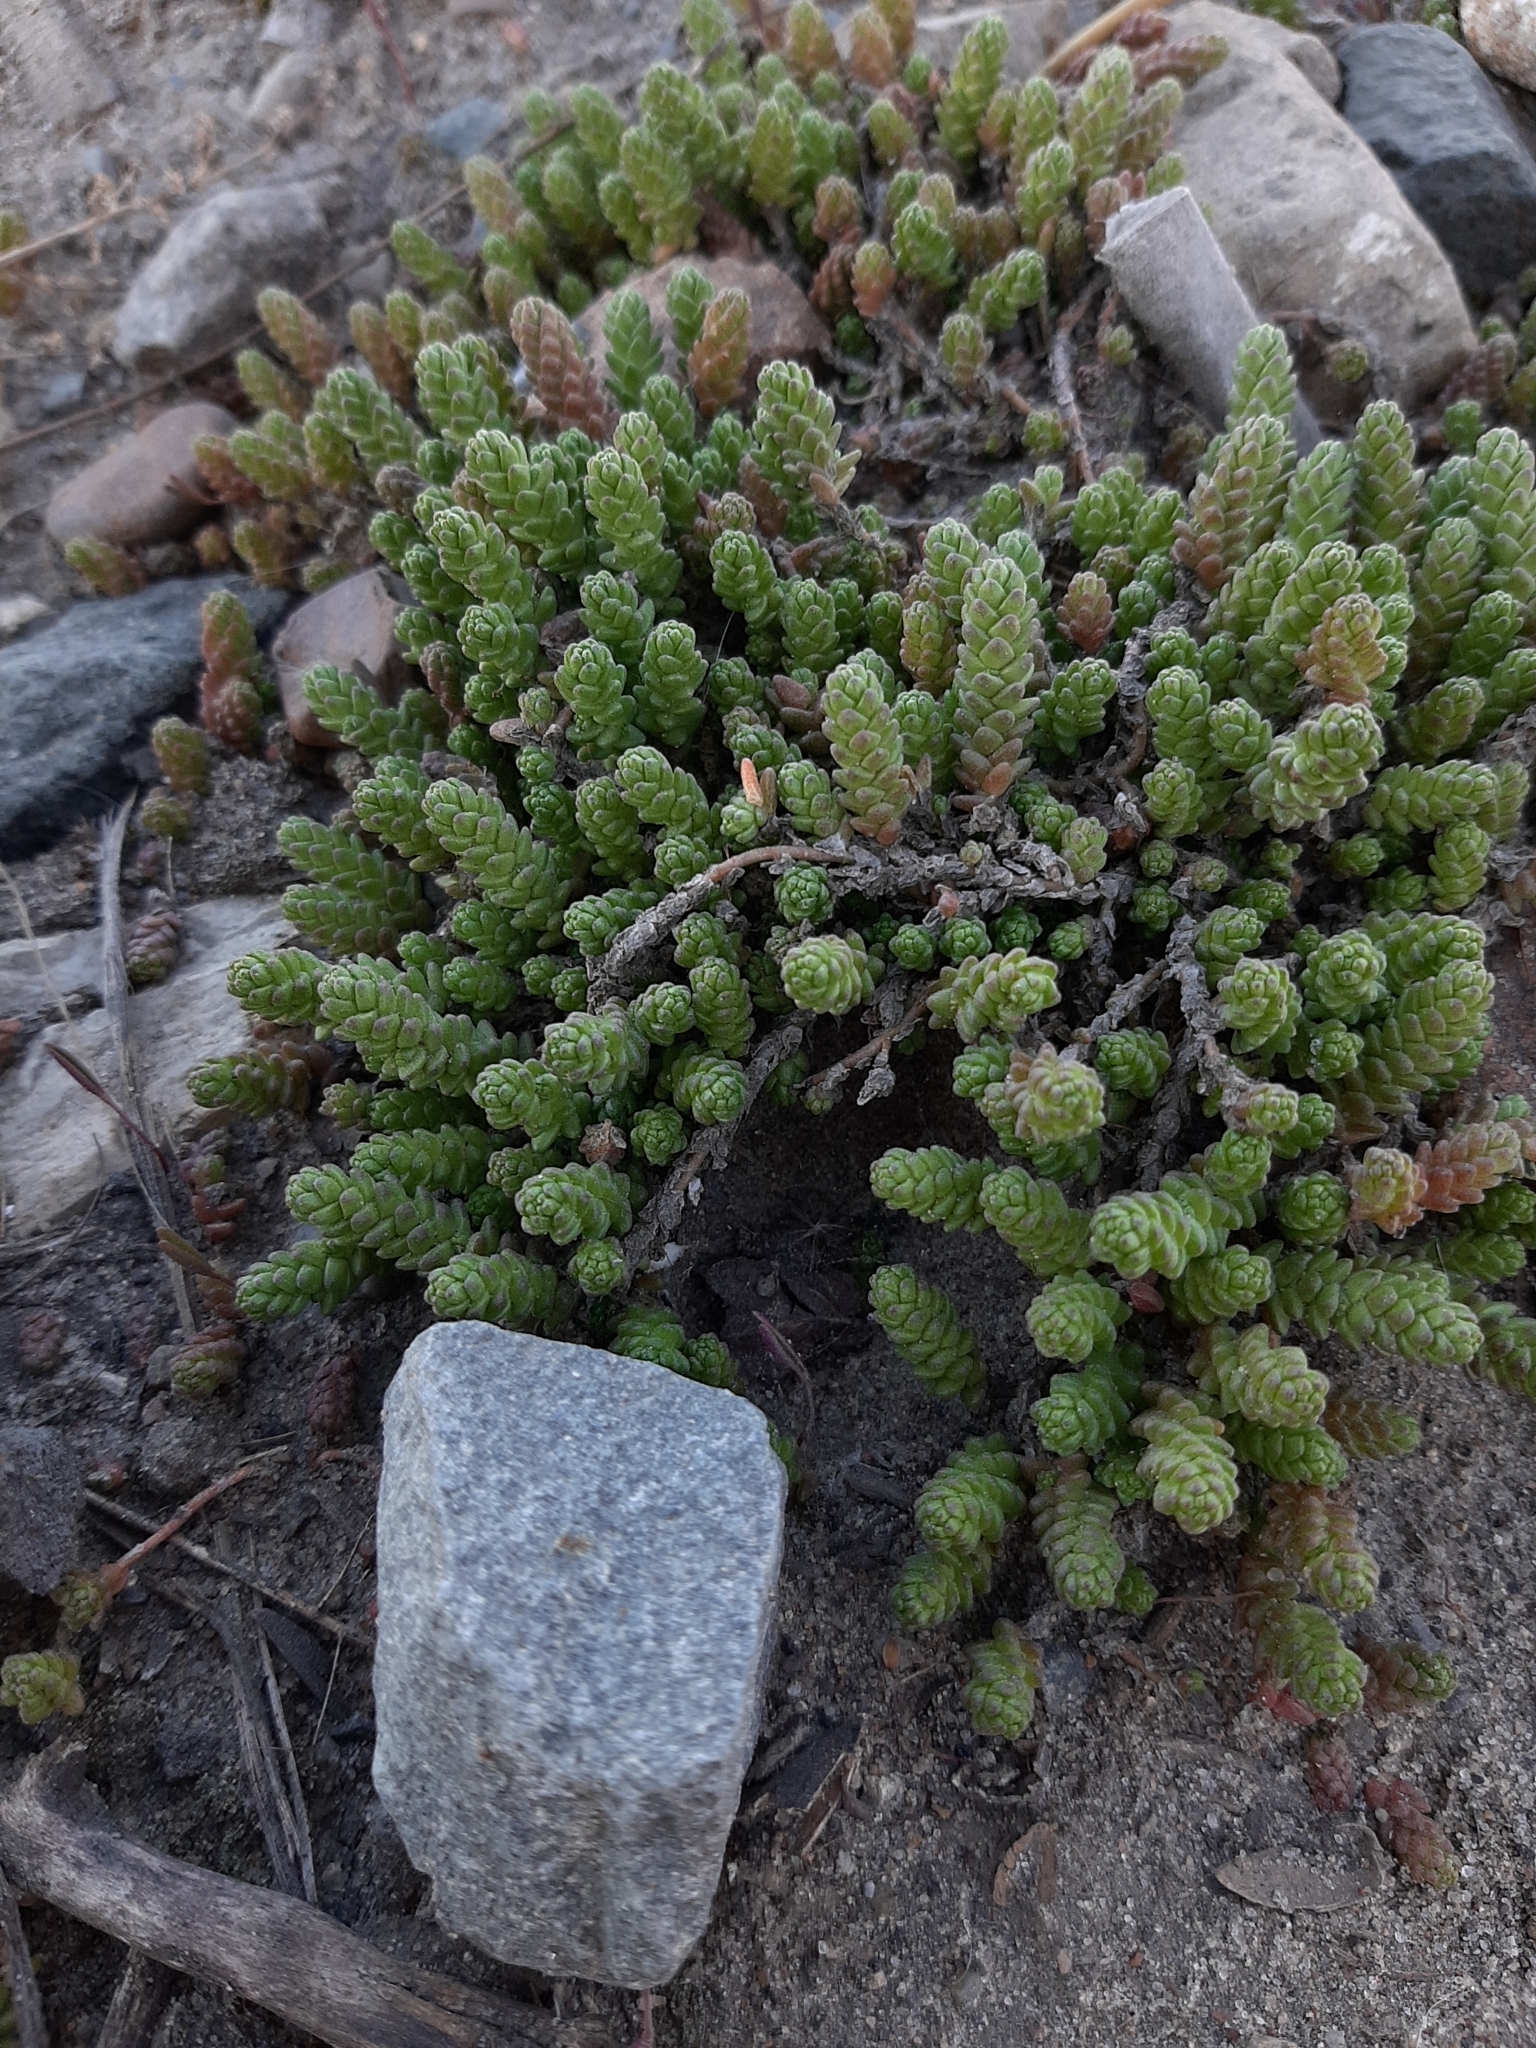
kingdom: Plantae
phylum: Tracheophyta
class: Magnoliopsida
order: Saxifragales
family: Crassulaceae
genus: Sedum
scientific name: Sedum acre
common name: Biting stonecrop
